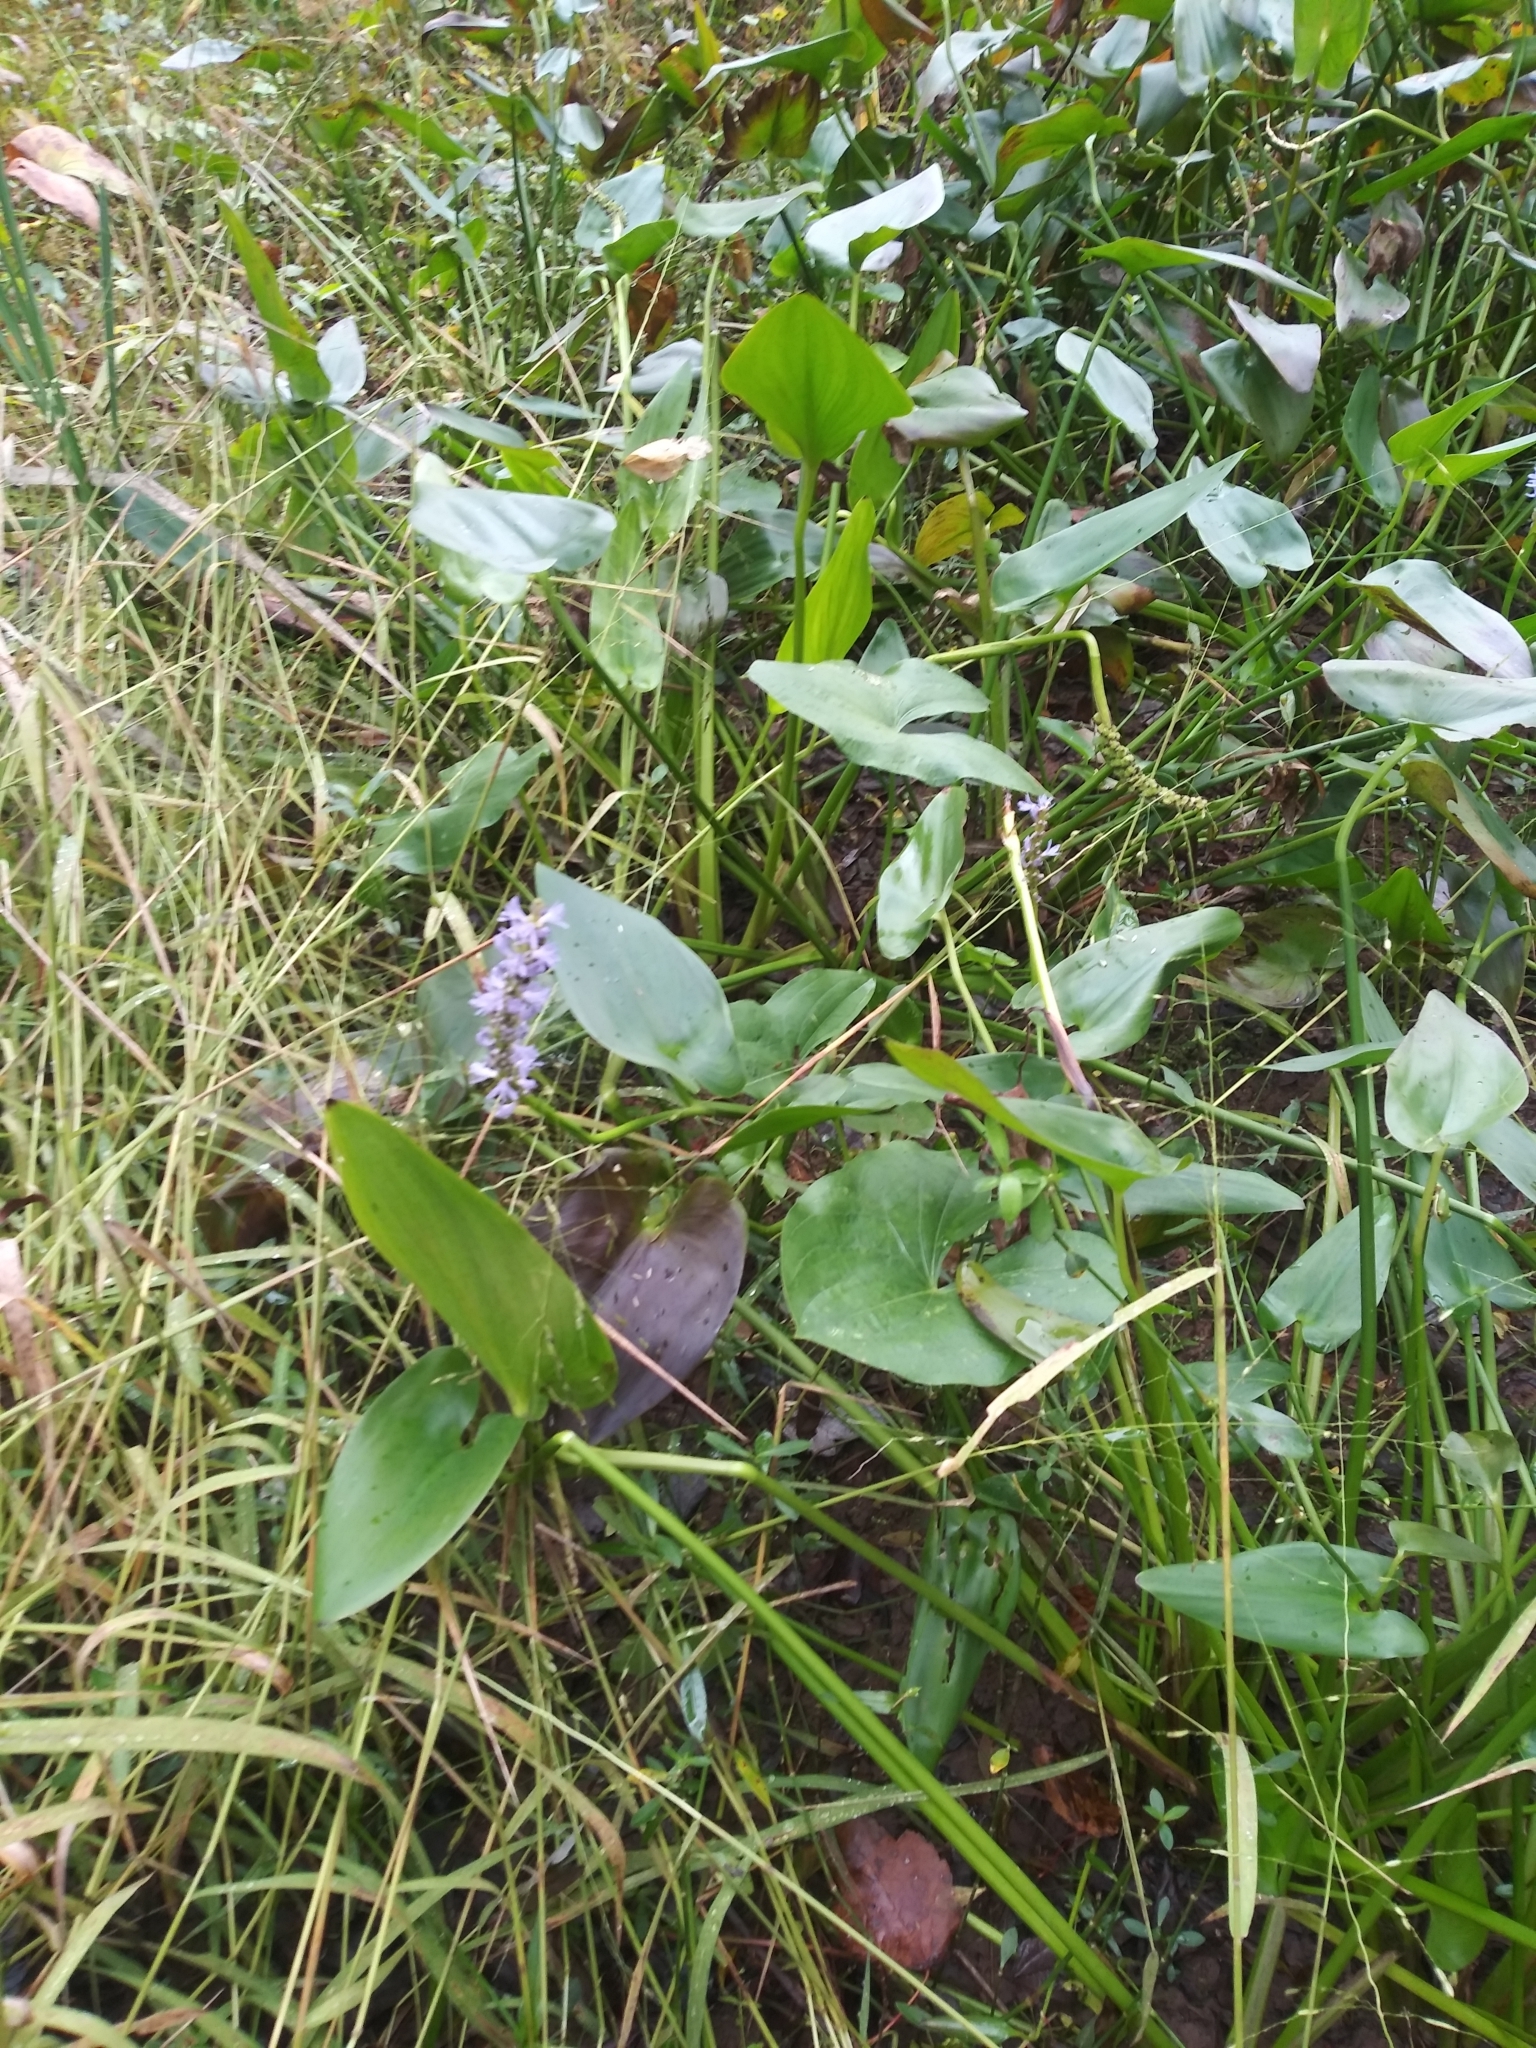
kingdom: Plantae
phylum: Tracheophyta
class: Liliopsida
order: Commelinales
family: Pontederiaceae
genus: Pontederia
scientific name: Pontederia cordata
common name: Pickerelweed
